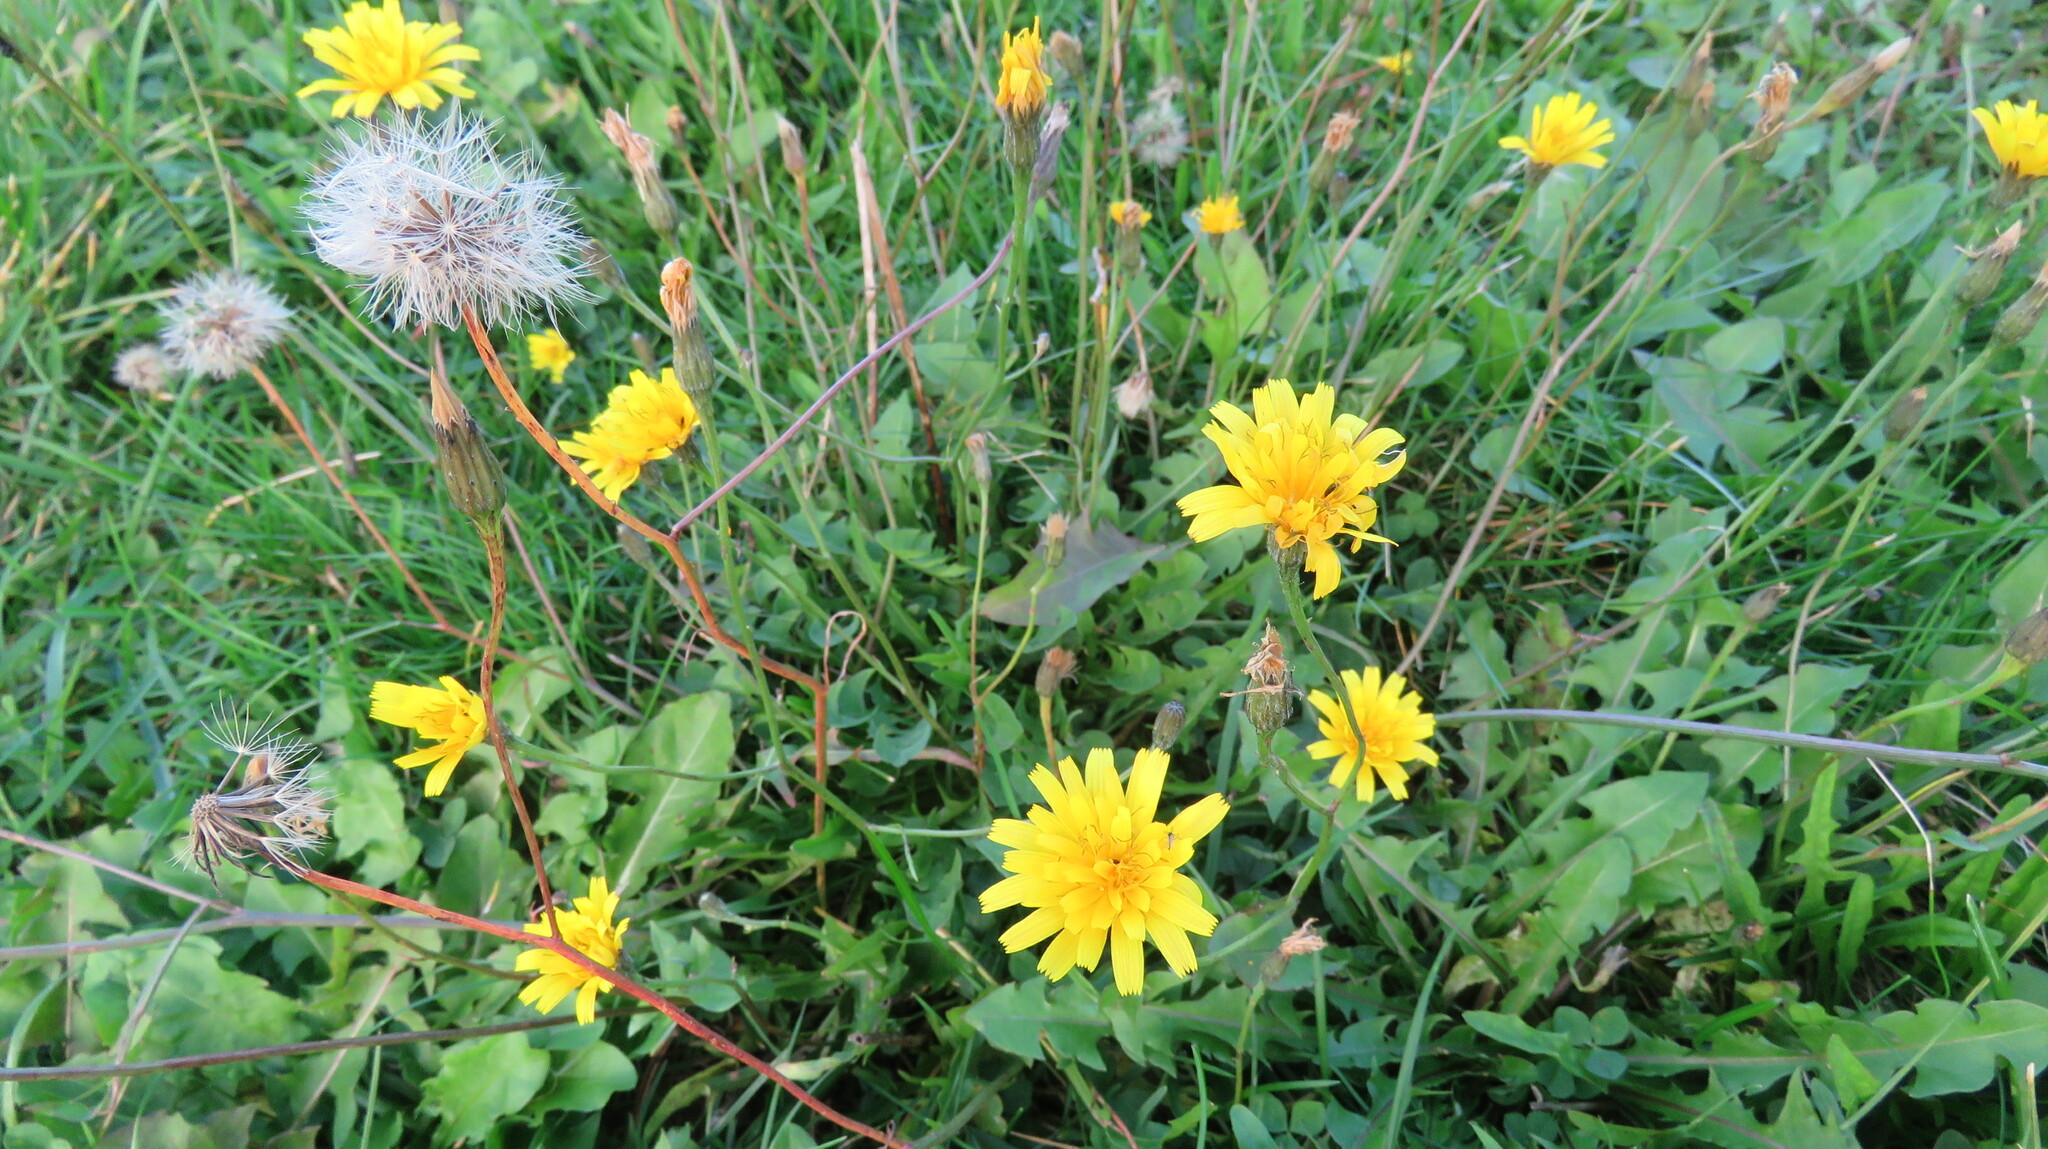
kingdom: Plantae
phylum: Tracheophyta
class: Magnoliopsida
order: Asterales
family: Asteraceae
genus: Scorzoneroides
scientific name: Scorzoneroides autumnalis
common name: Autumn hawkbit
